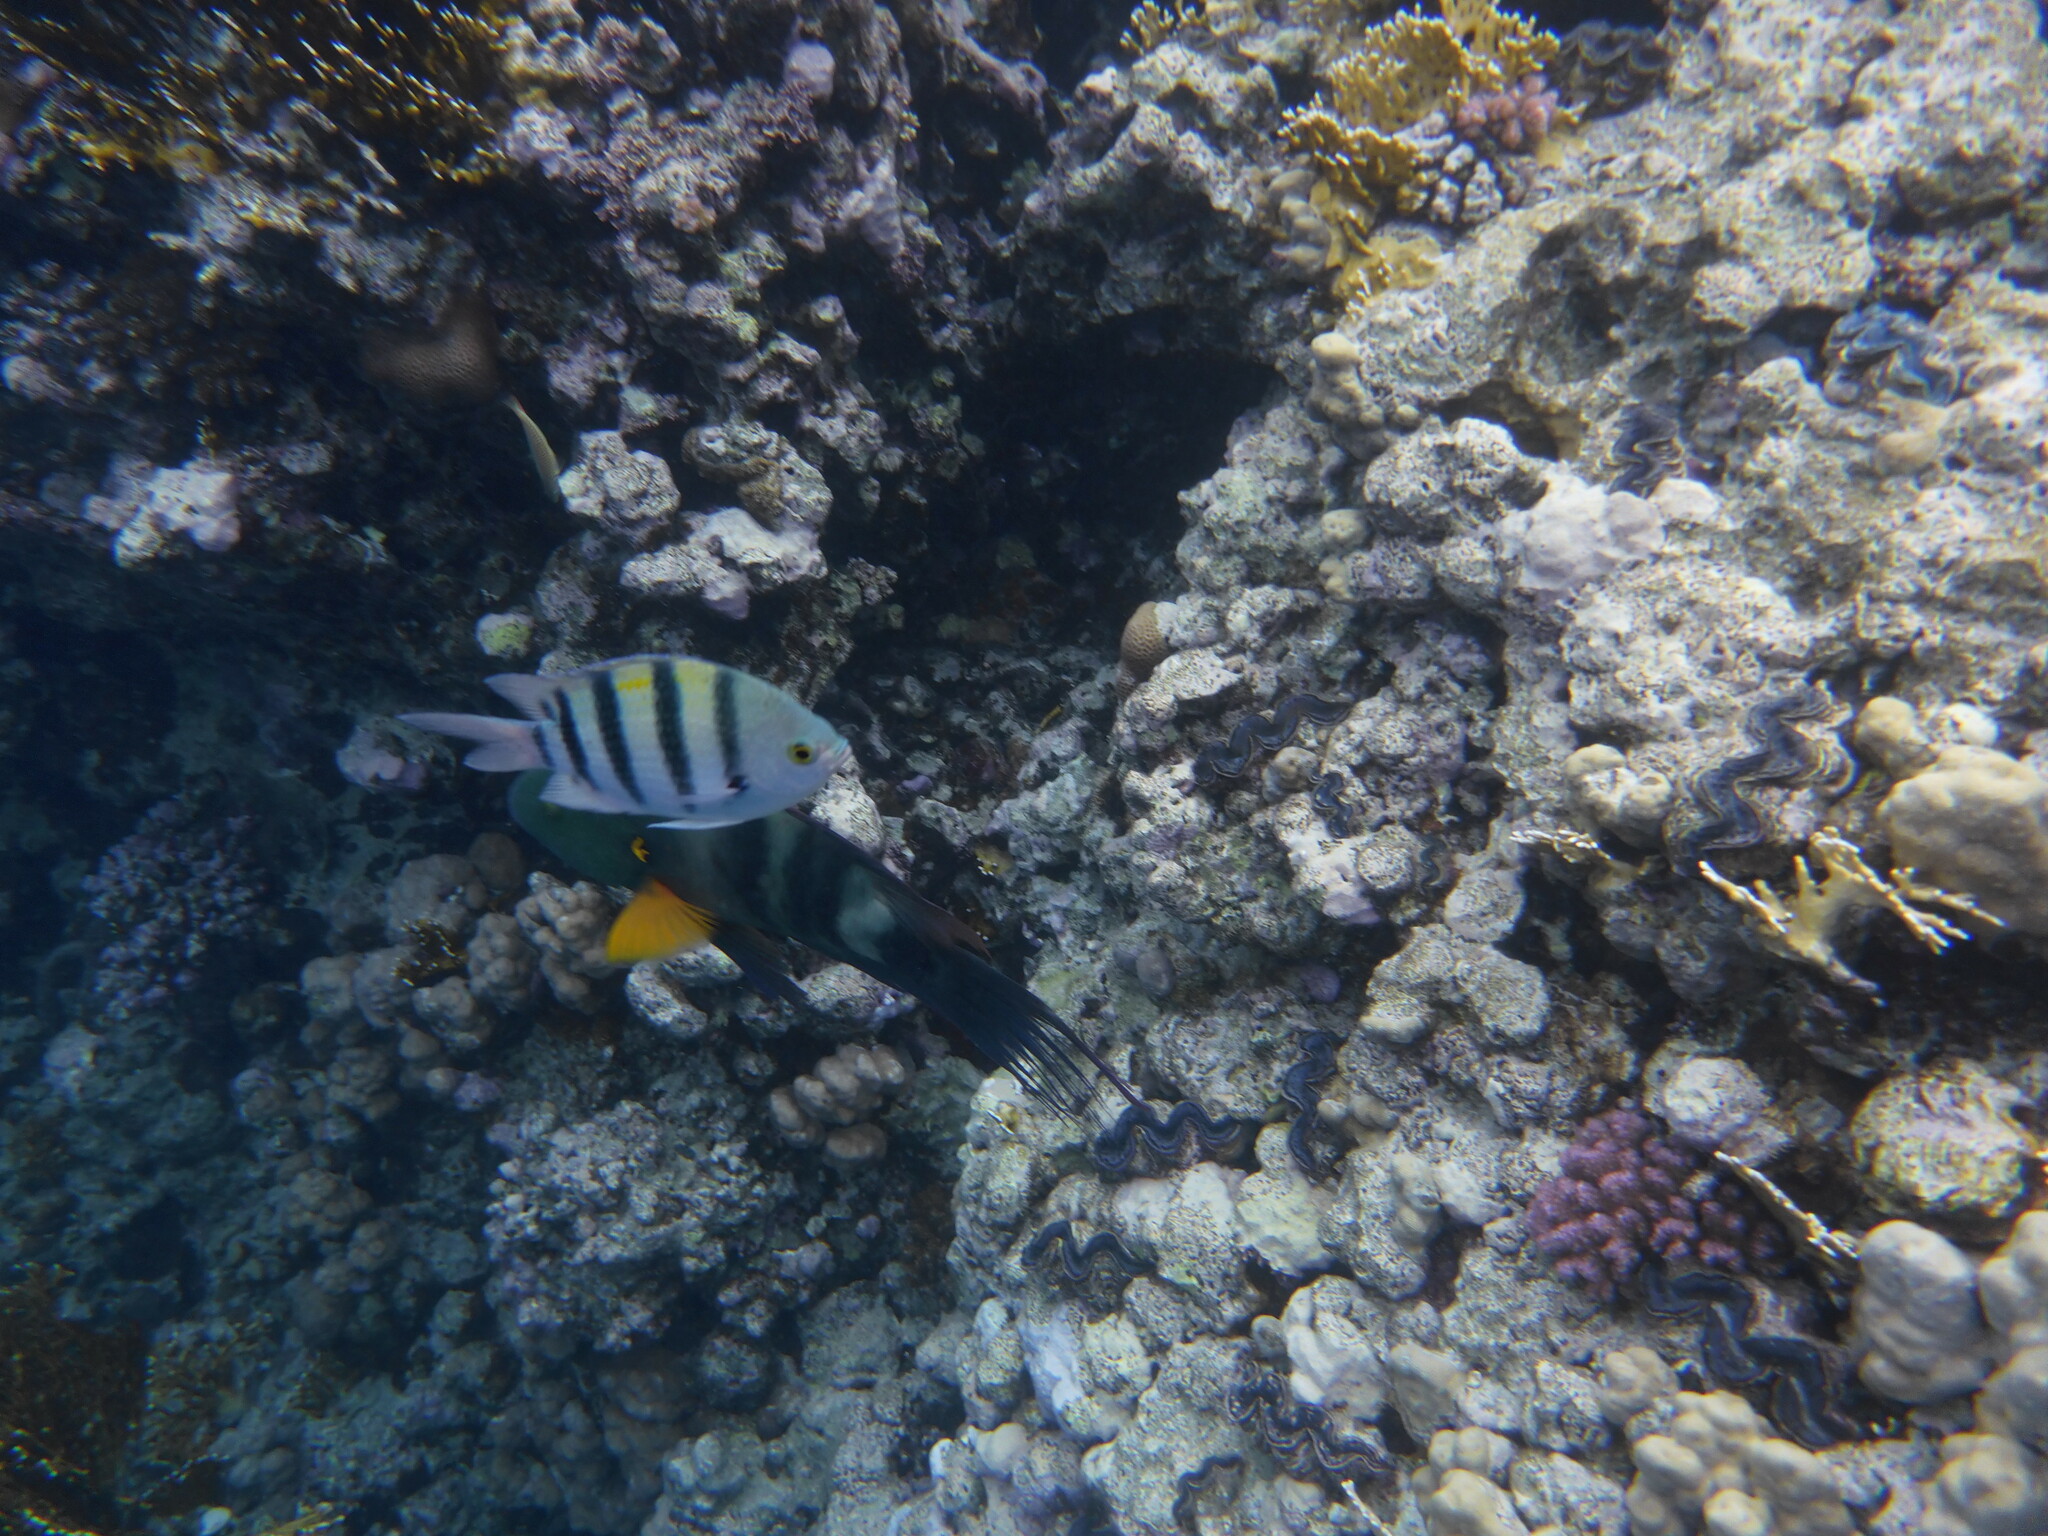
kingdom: Animalia
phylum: Chordata
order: Perciformes
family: Pomacentridae
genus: Abudefduf
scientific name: Abudefduf vaigiensis
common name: Indo-pacific sergeant
